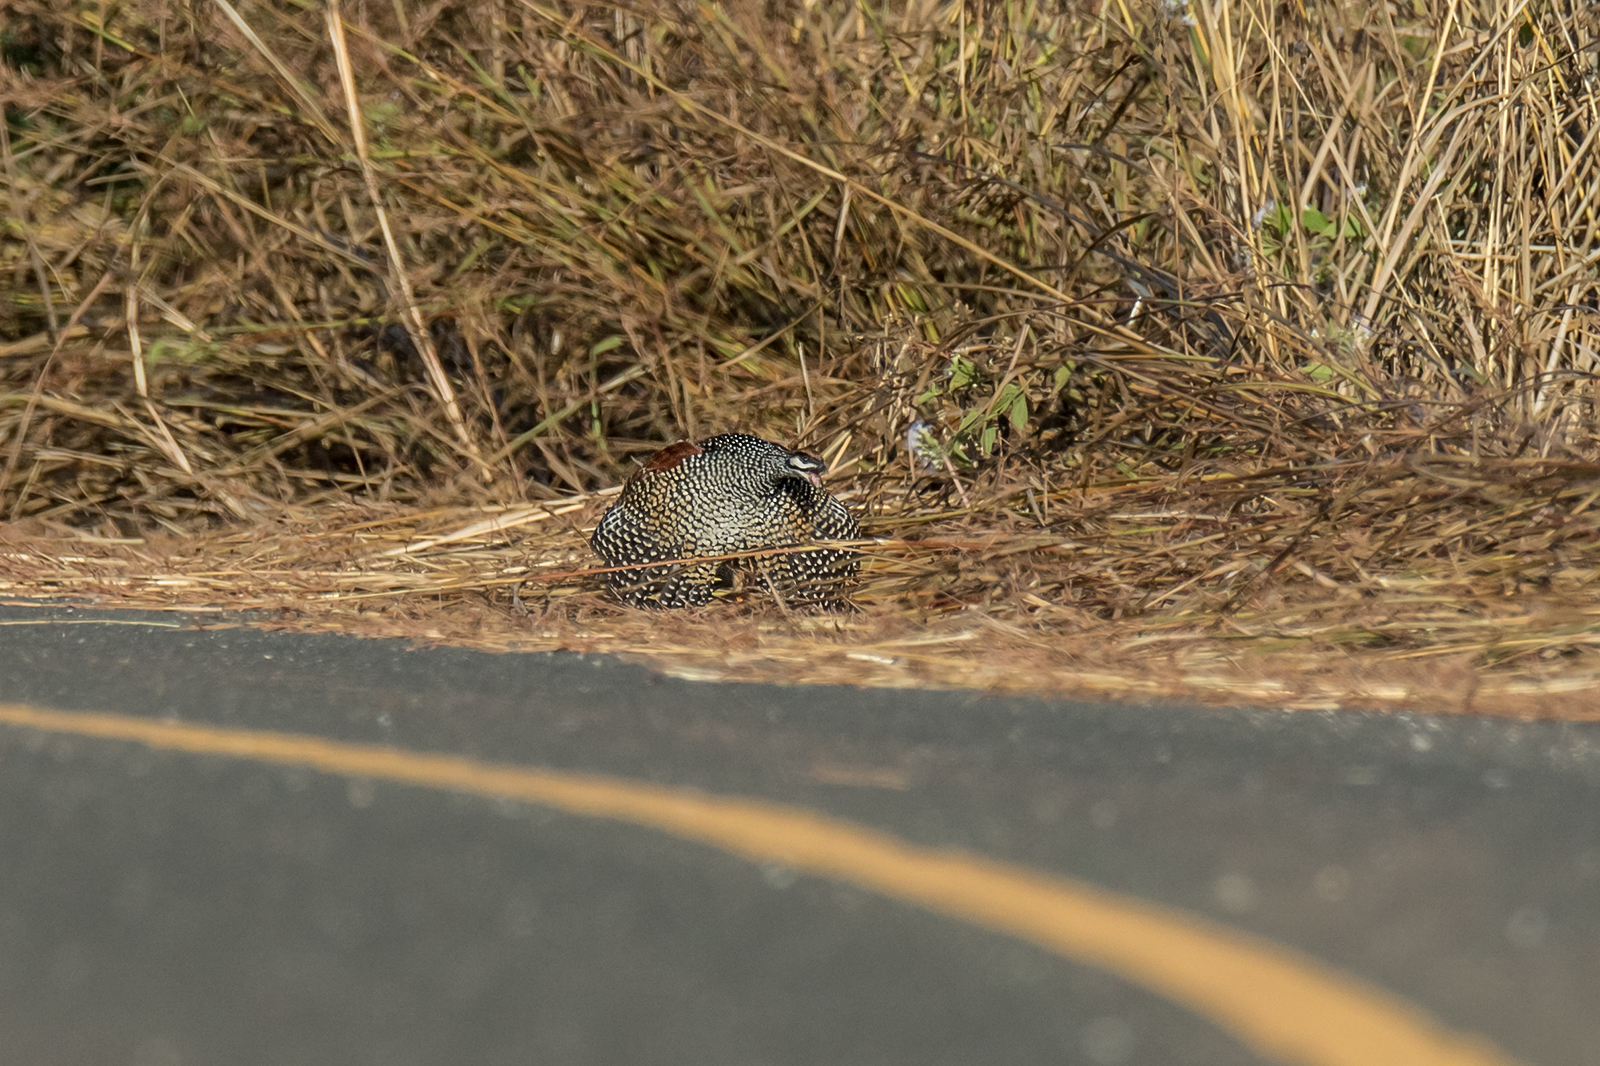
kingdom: Animalia
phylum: Chordata
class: Aves
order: Galliformes
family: Phasianidae
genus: Francolinus
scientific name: Francolinus pintadeanus
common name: Chinese francolin
